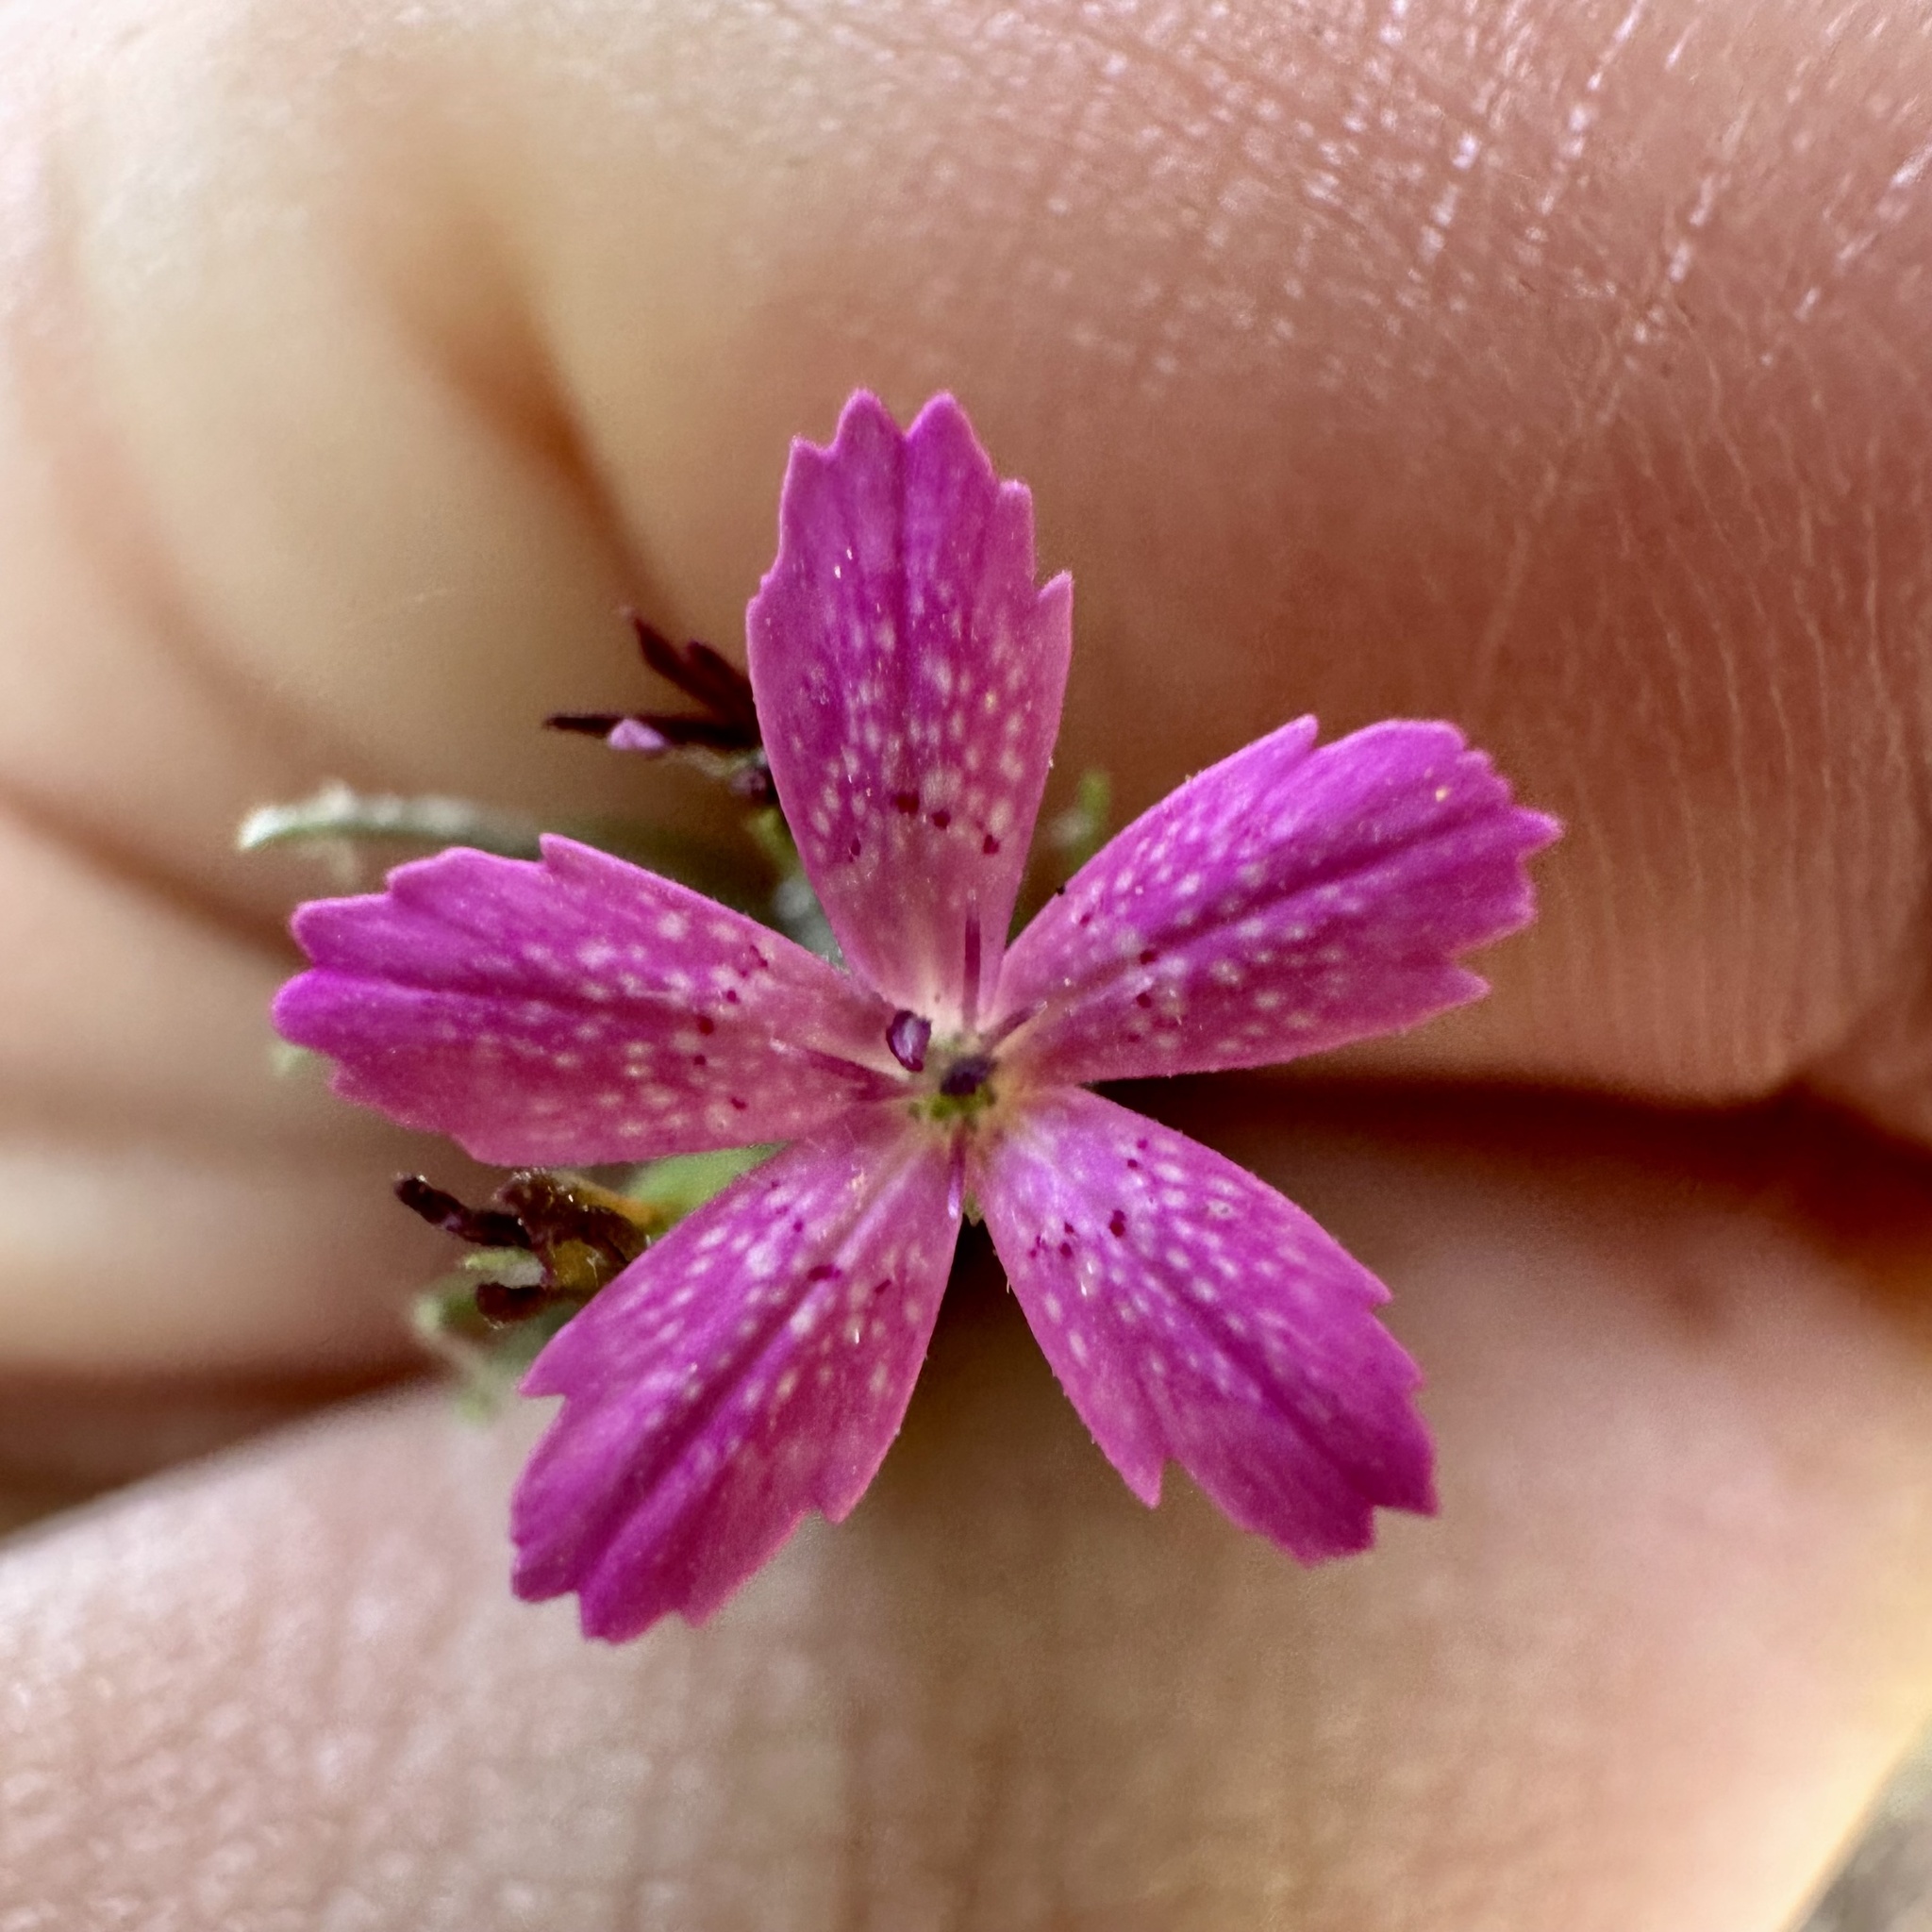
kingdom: Plantae
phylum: Tracheophyta
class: Magnoliopsida
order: Caryophyllales
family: Caryophyllaceae
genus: Dianthus
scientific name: Dianthus armeria
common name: Deptford pink
